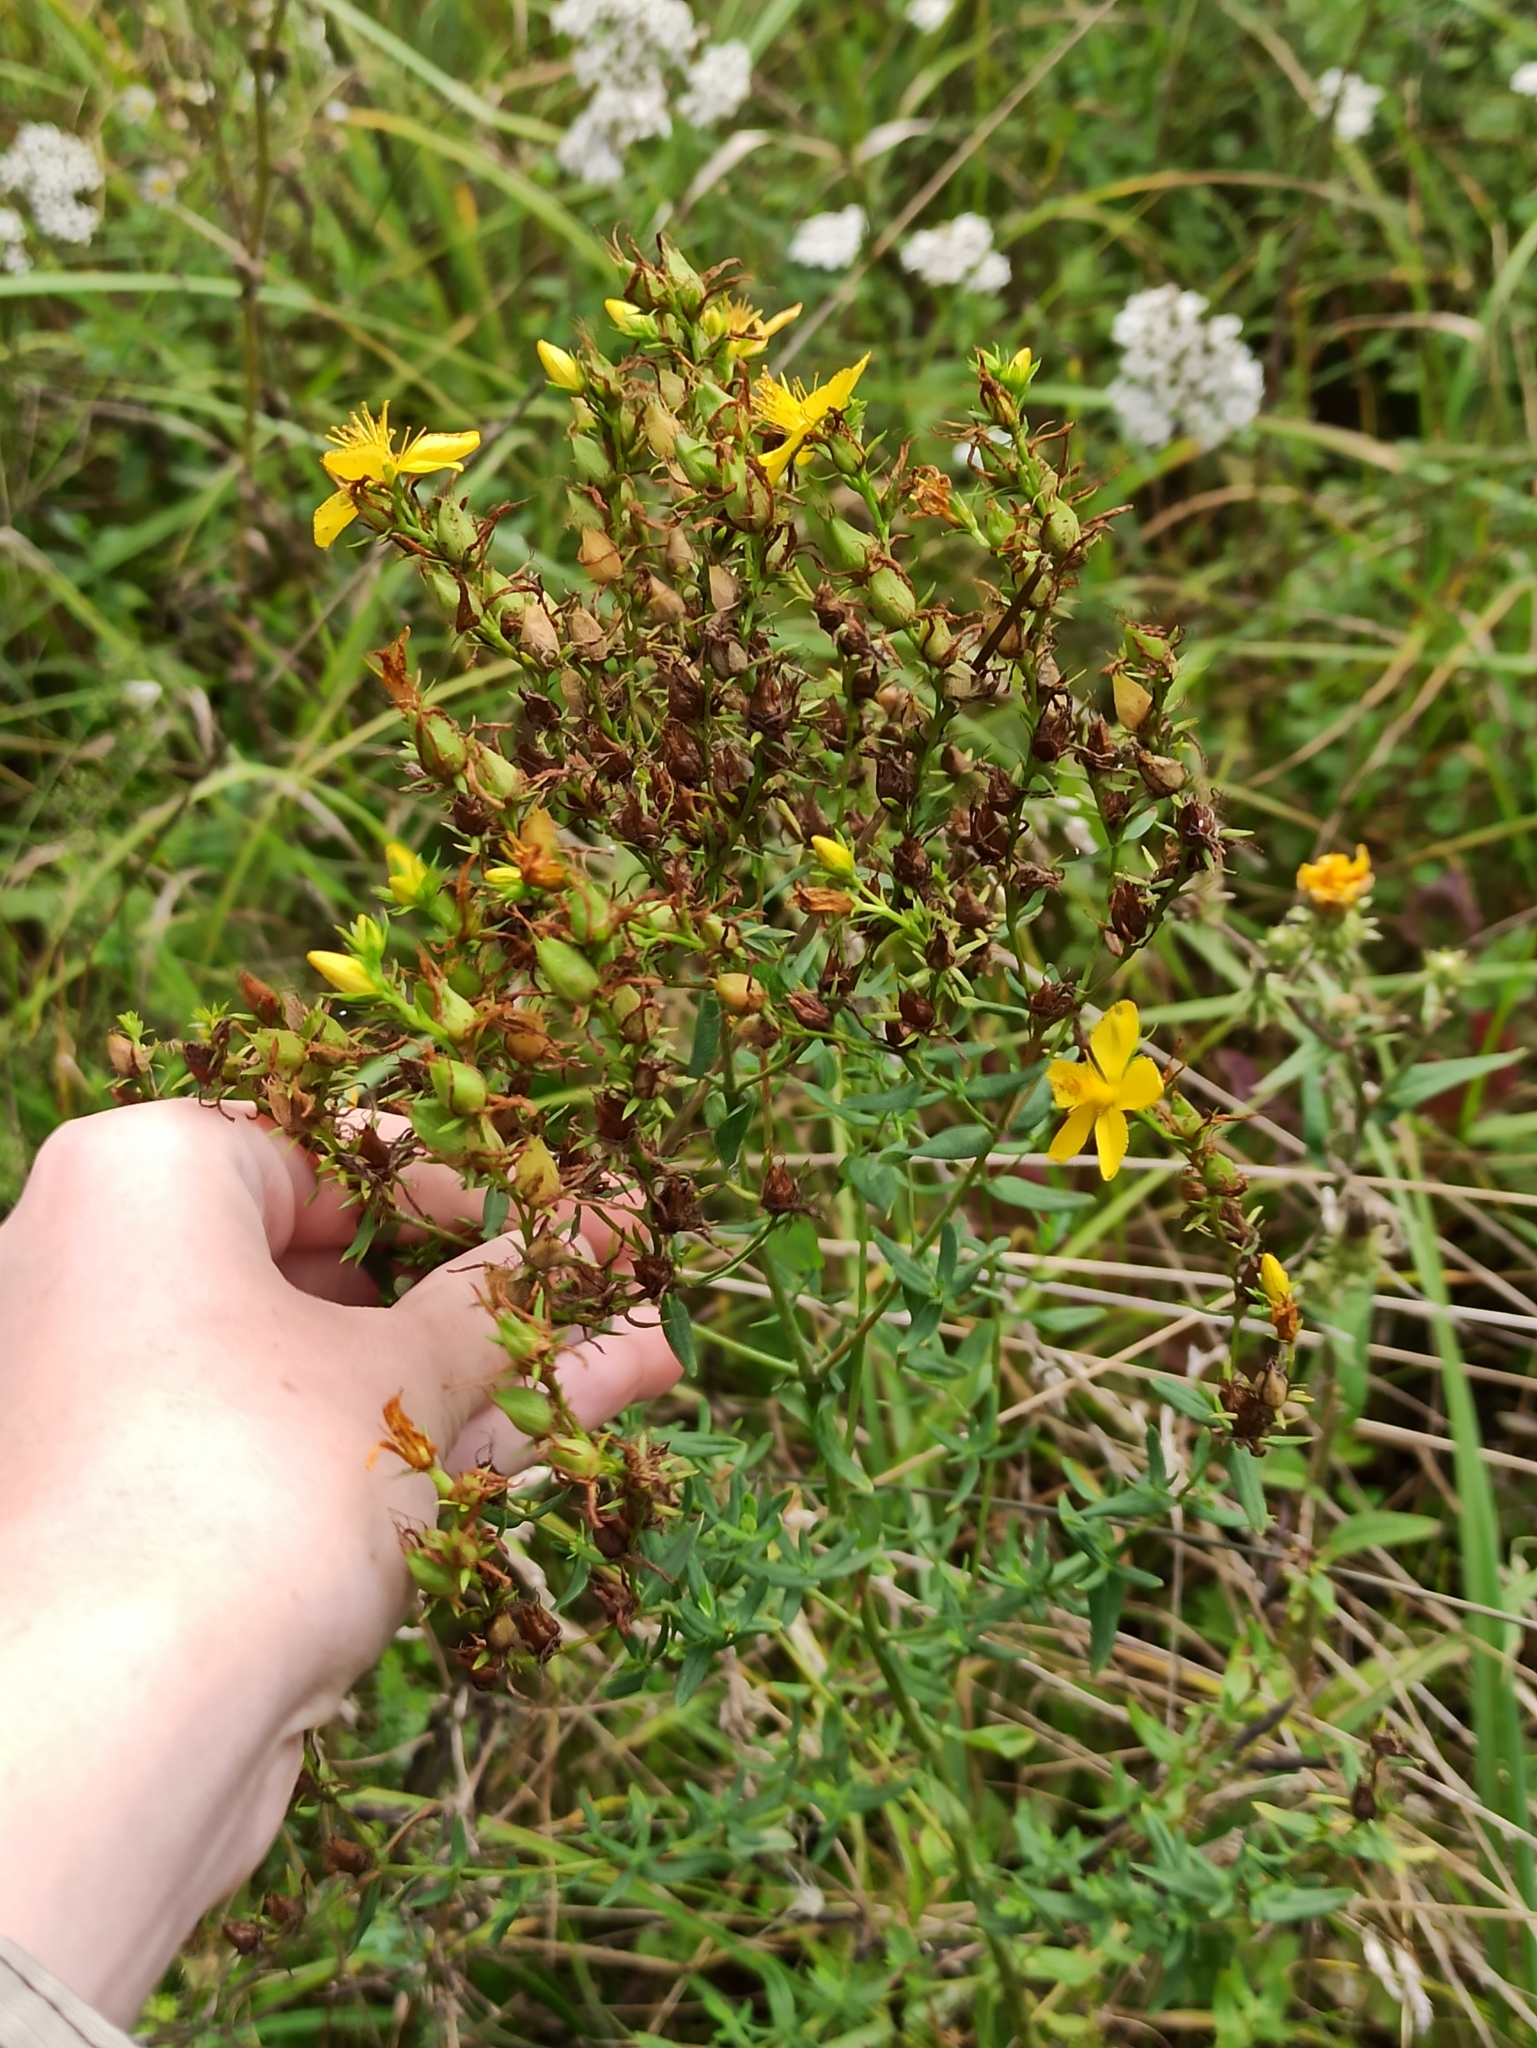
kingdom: Plantae
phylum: Tracheophyta
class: Magnoliopsida
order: Malpighiales
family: Hypericaceae
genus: Hypericum
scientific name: Hypericum perforatum
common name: Common st. johnswort
